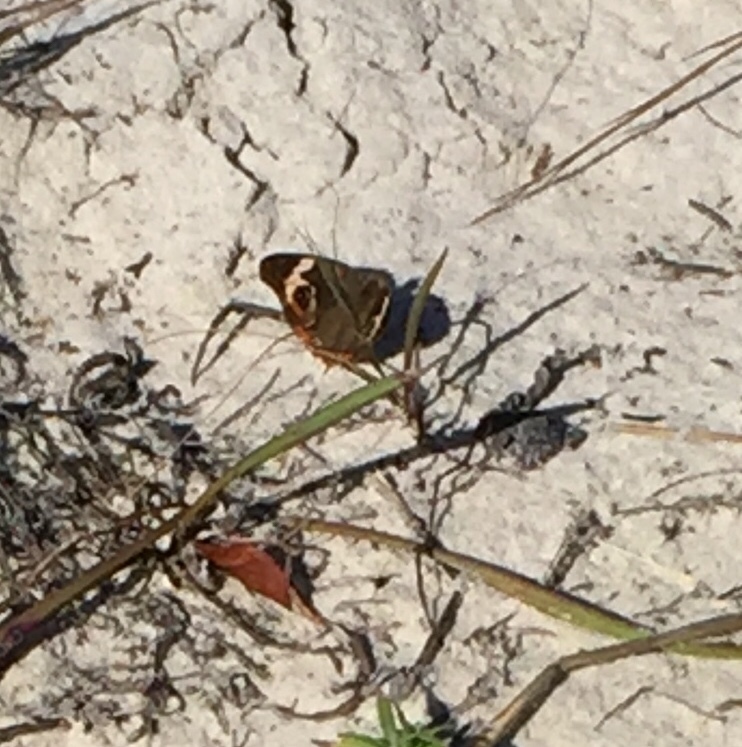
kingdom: Animalia
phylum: Arthropoda
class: Insecta
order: Lepidoptera
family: Nymphalidae
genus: Junonia
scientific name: Junonia coenia
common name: Common buckeye
